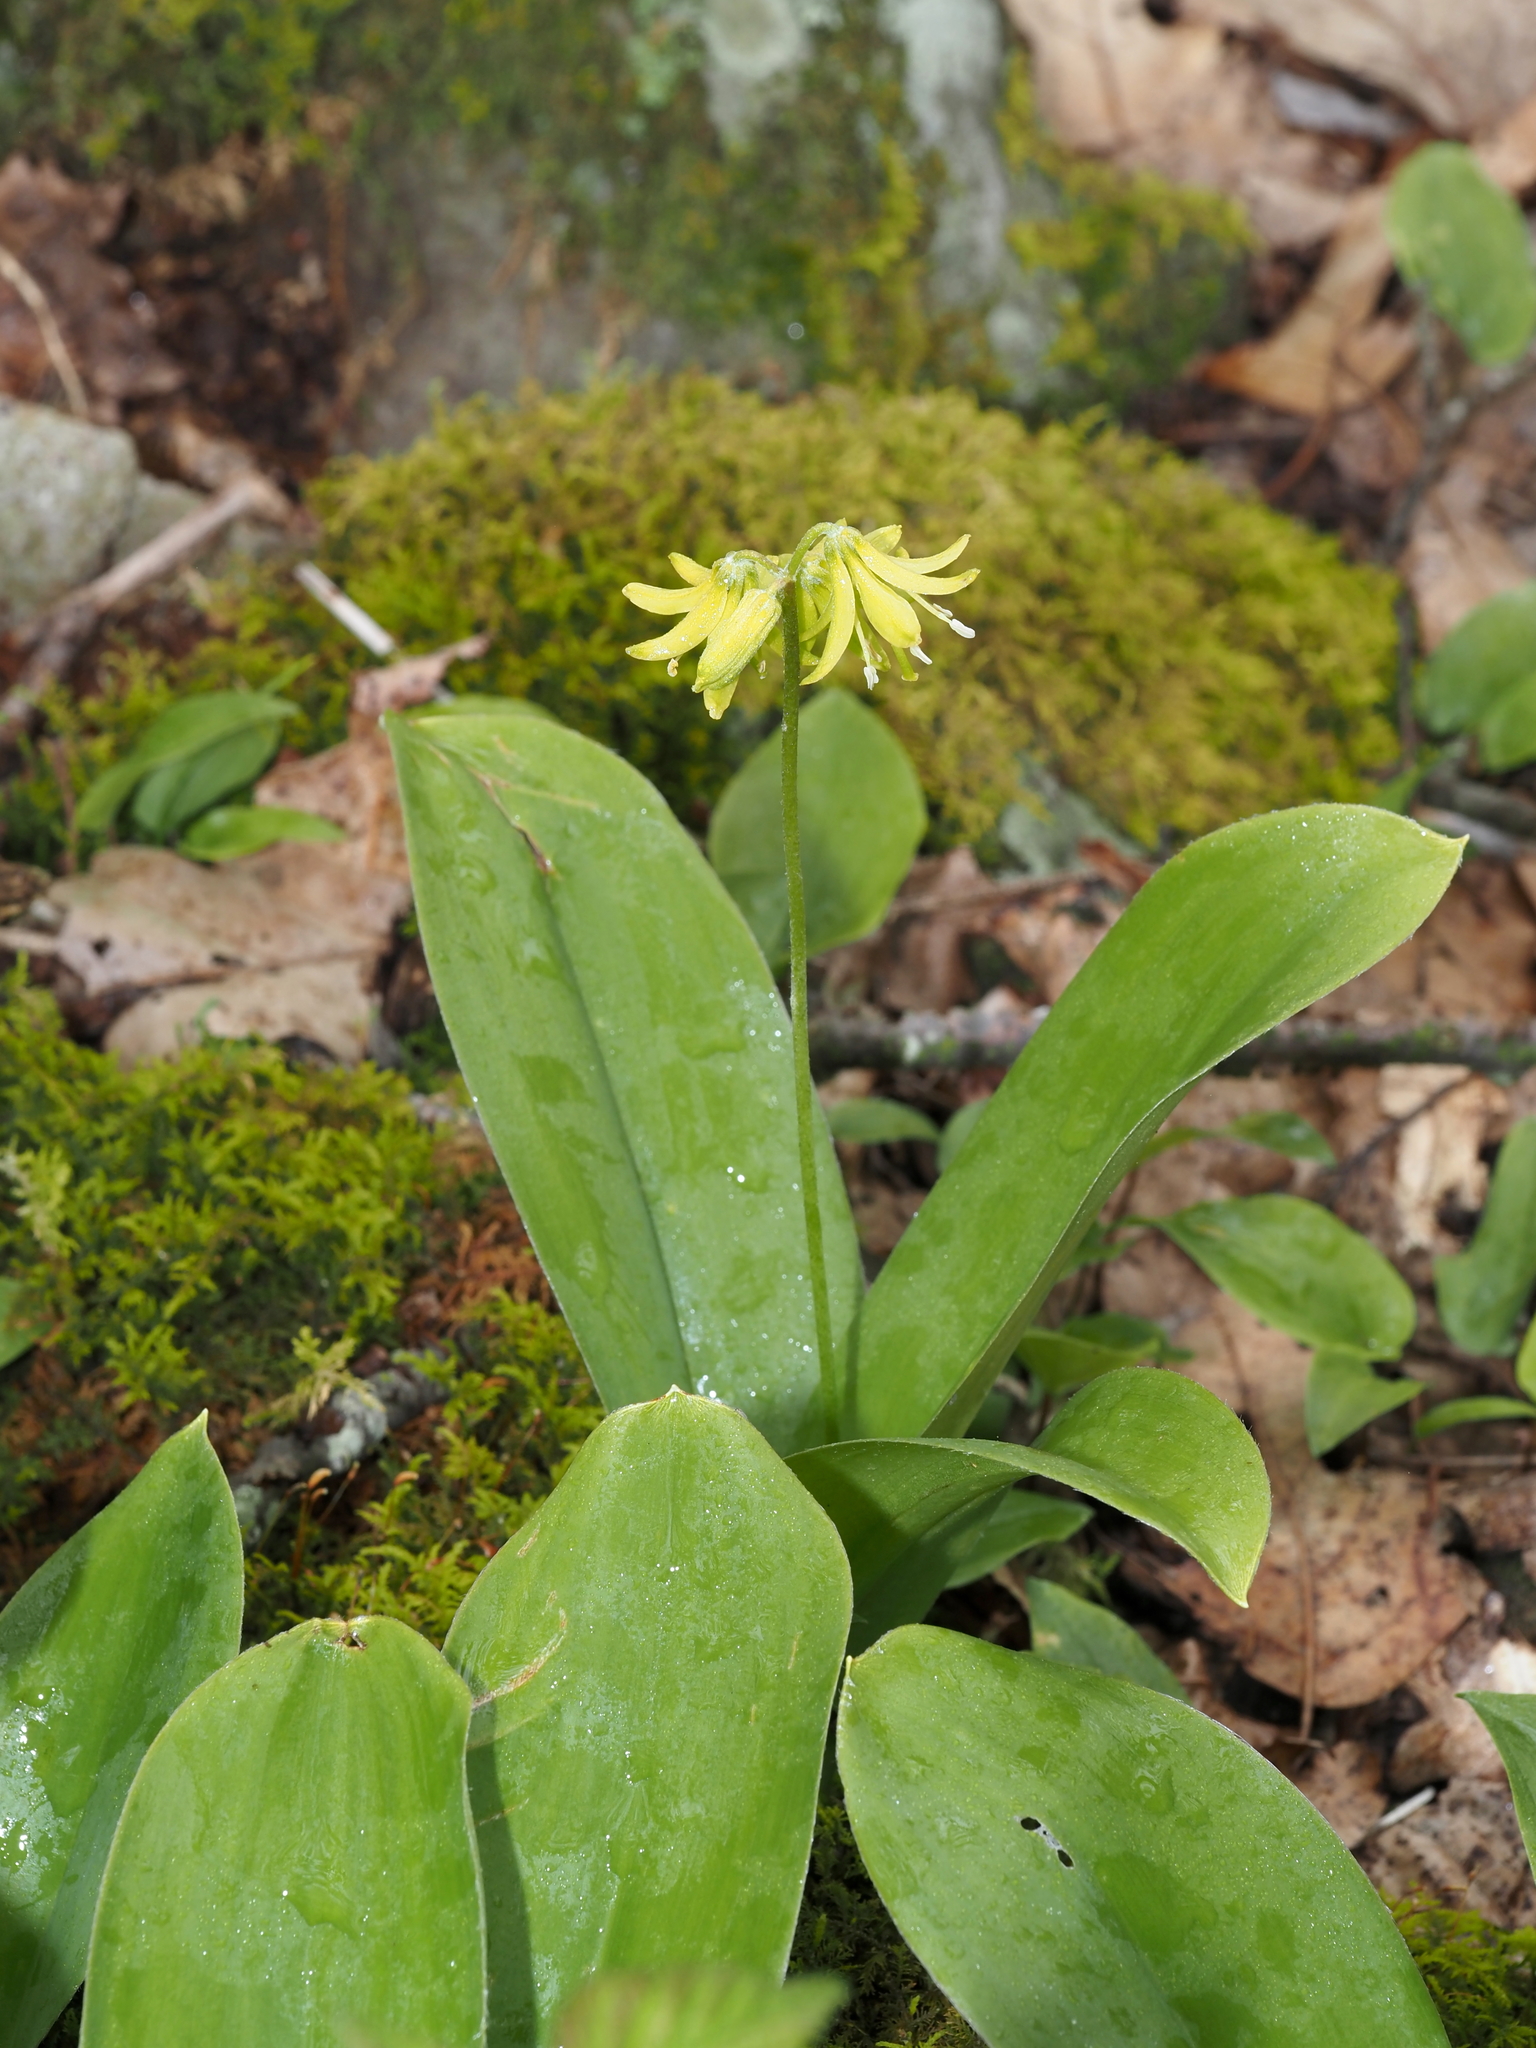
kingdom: Plantae
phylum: Tracheophyta
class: Liliopsida
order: Liliales
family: Liliaceae
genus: Clintonia
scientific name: Clintonia borealis
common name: Yellow clintonia
